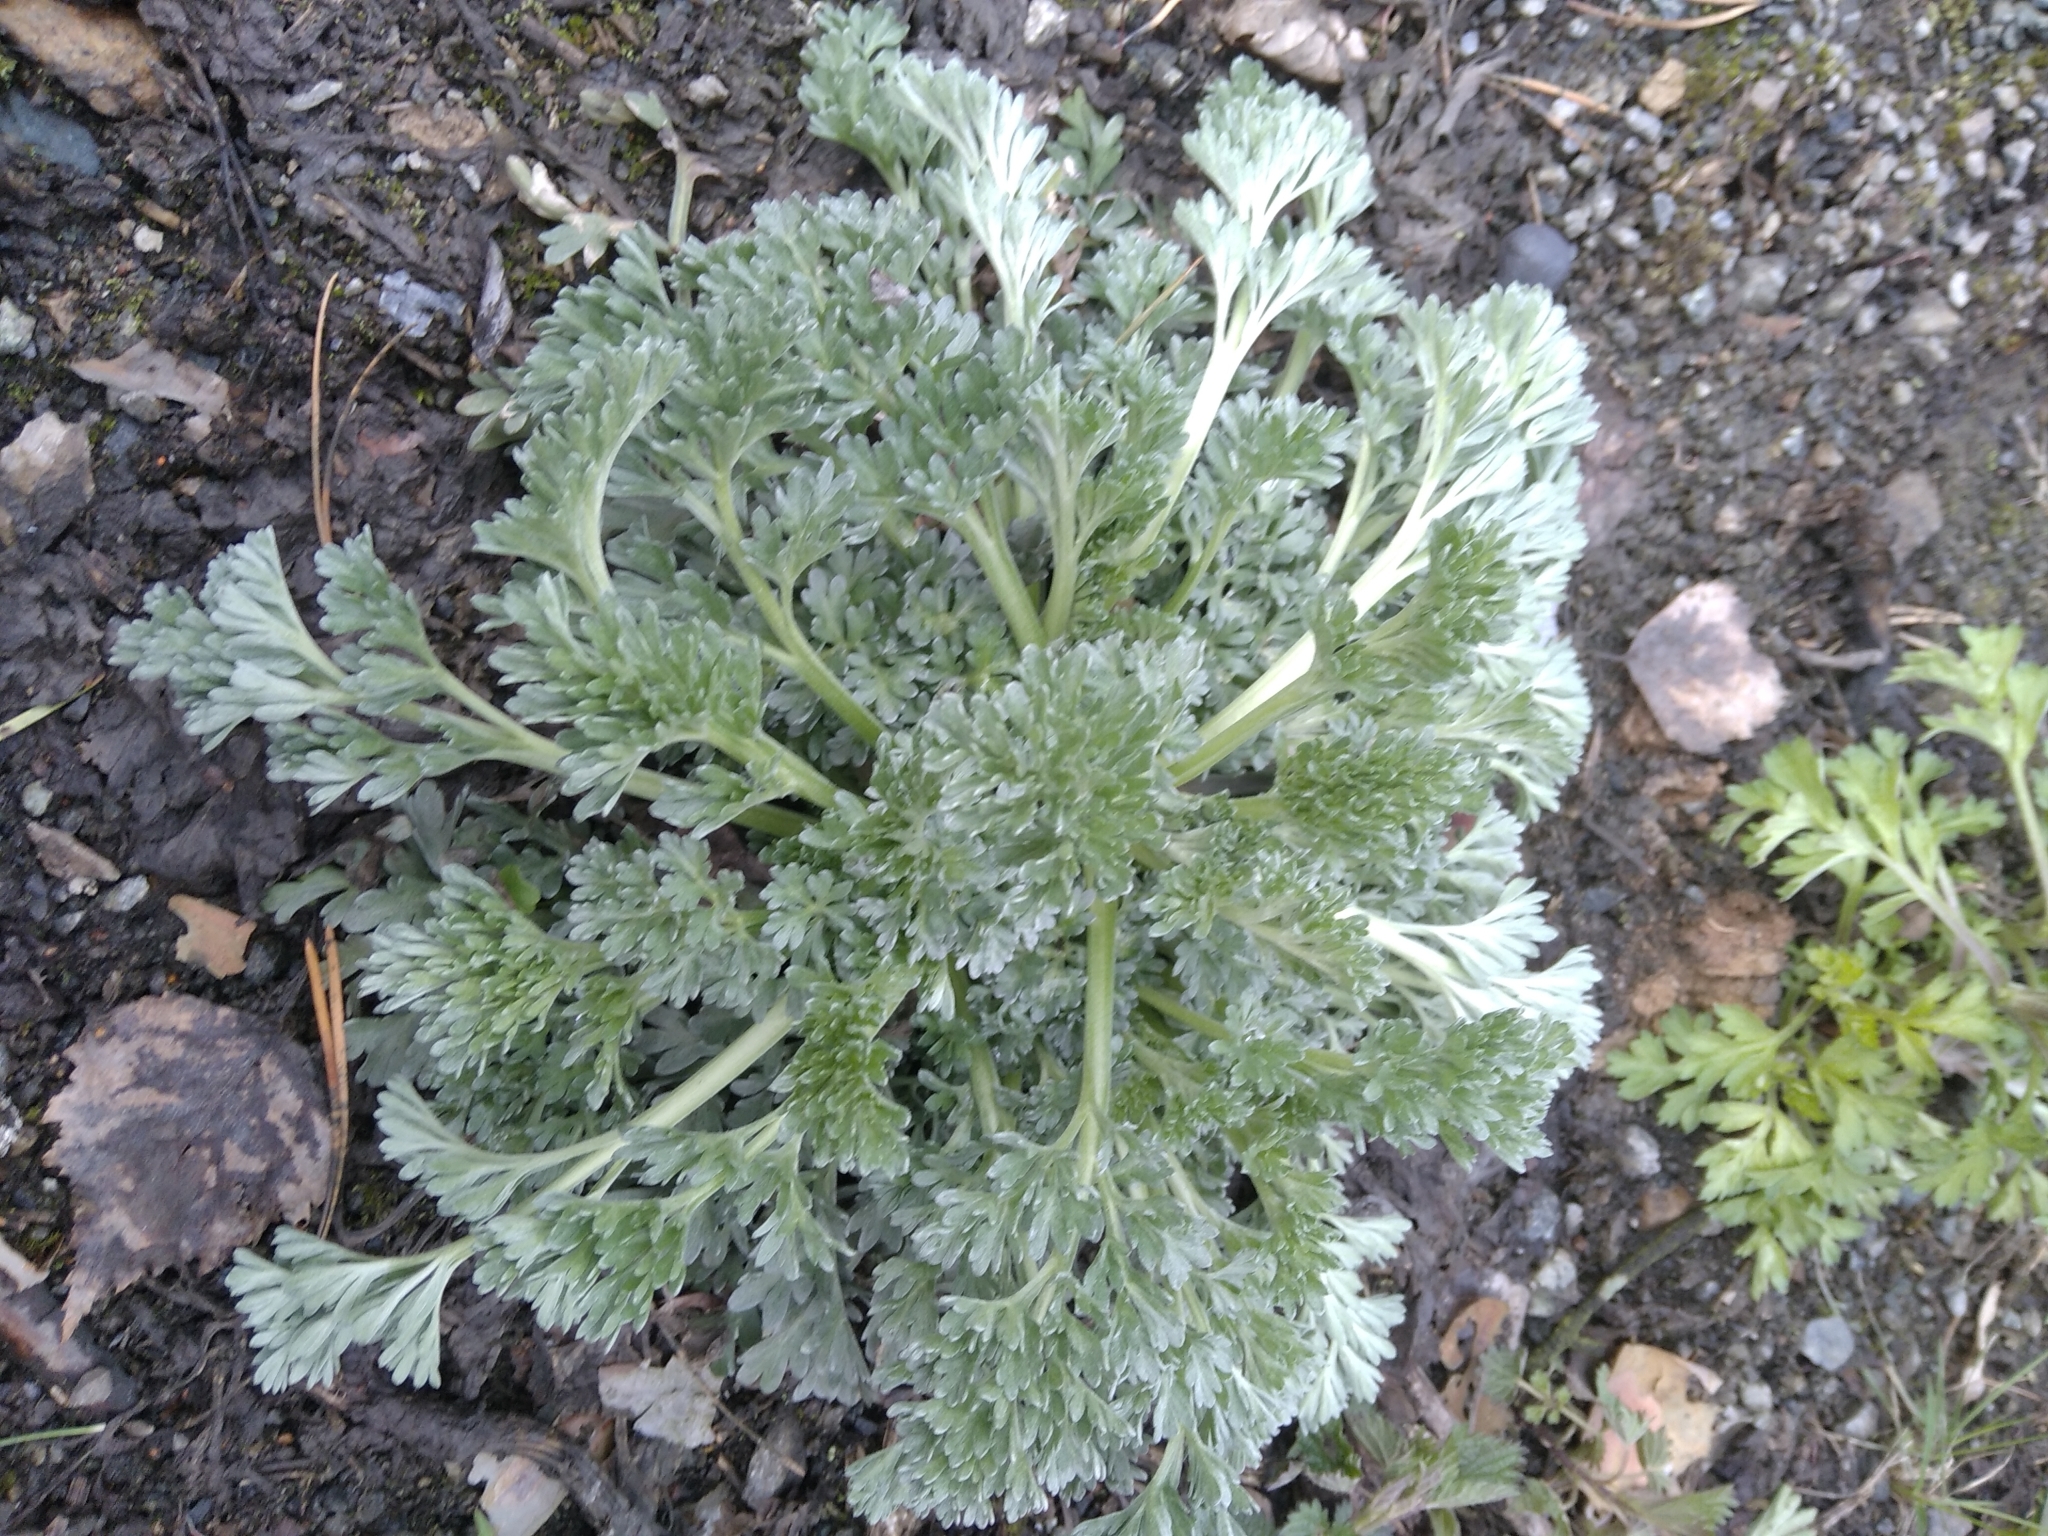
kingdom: Plantae
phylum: Tracheophyta
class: Magnoliopsida
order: Asterales
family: Asteraceae
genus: Artemisia
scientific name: Artemisia absinthium
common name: Wormwood
